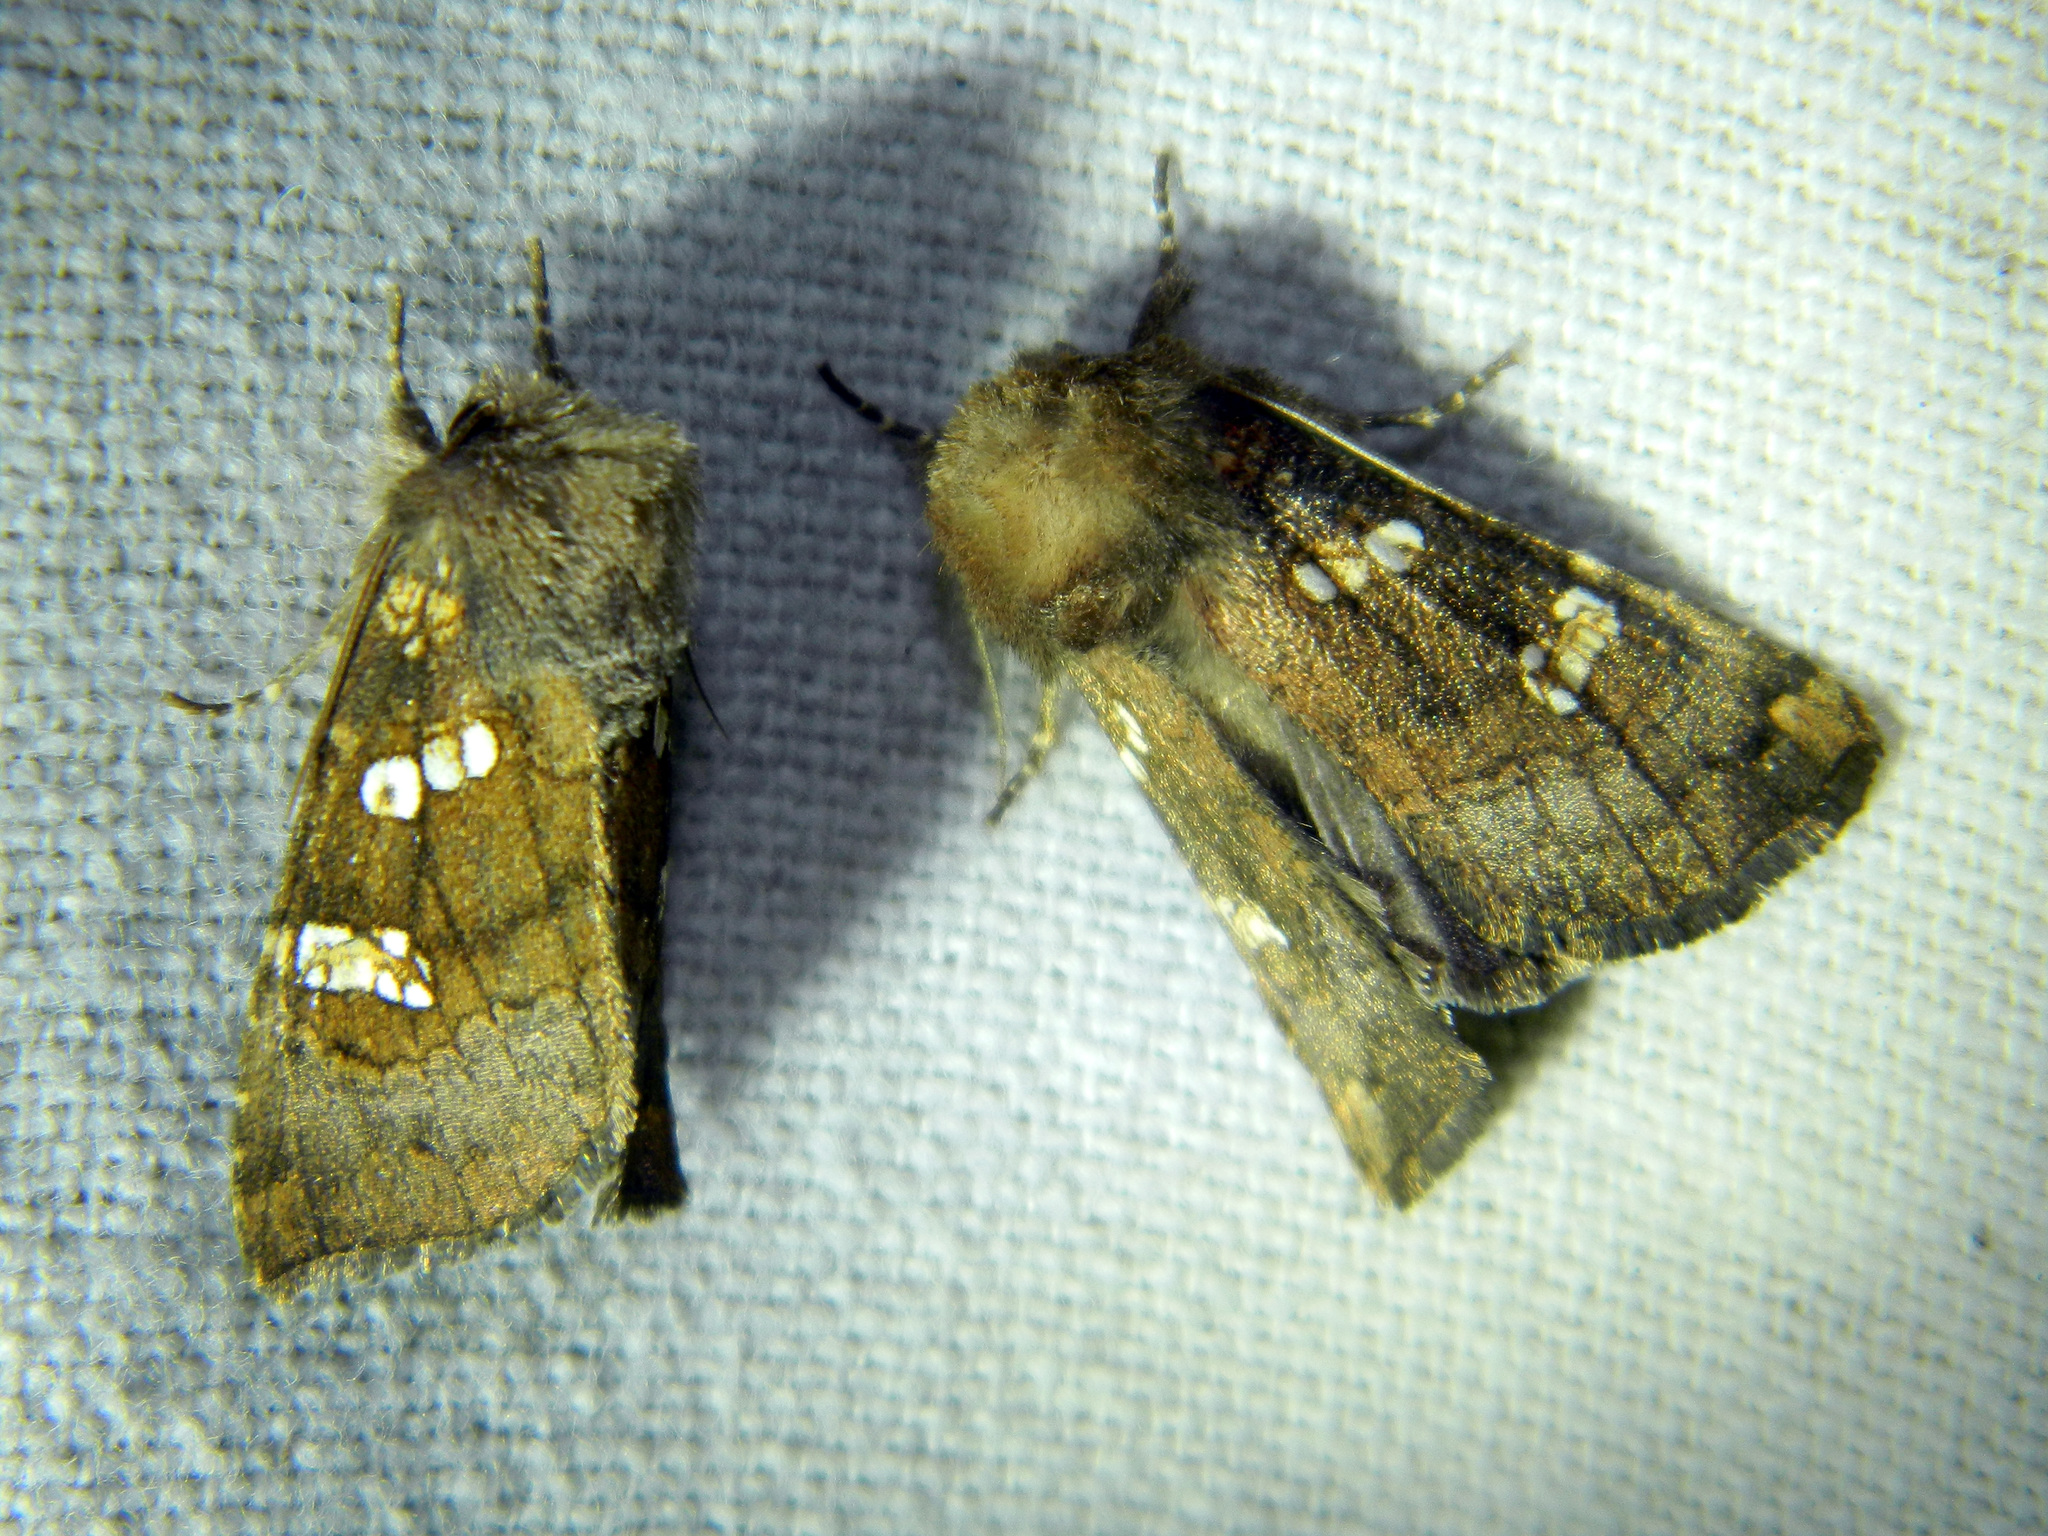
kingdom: Animalia
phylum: Arthropoda
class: Insecta
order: Lepidoptera
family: Noctuidae
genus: Papaipema
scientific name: Papaipema unimoda
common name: Meadow rue borer moth
